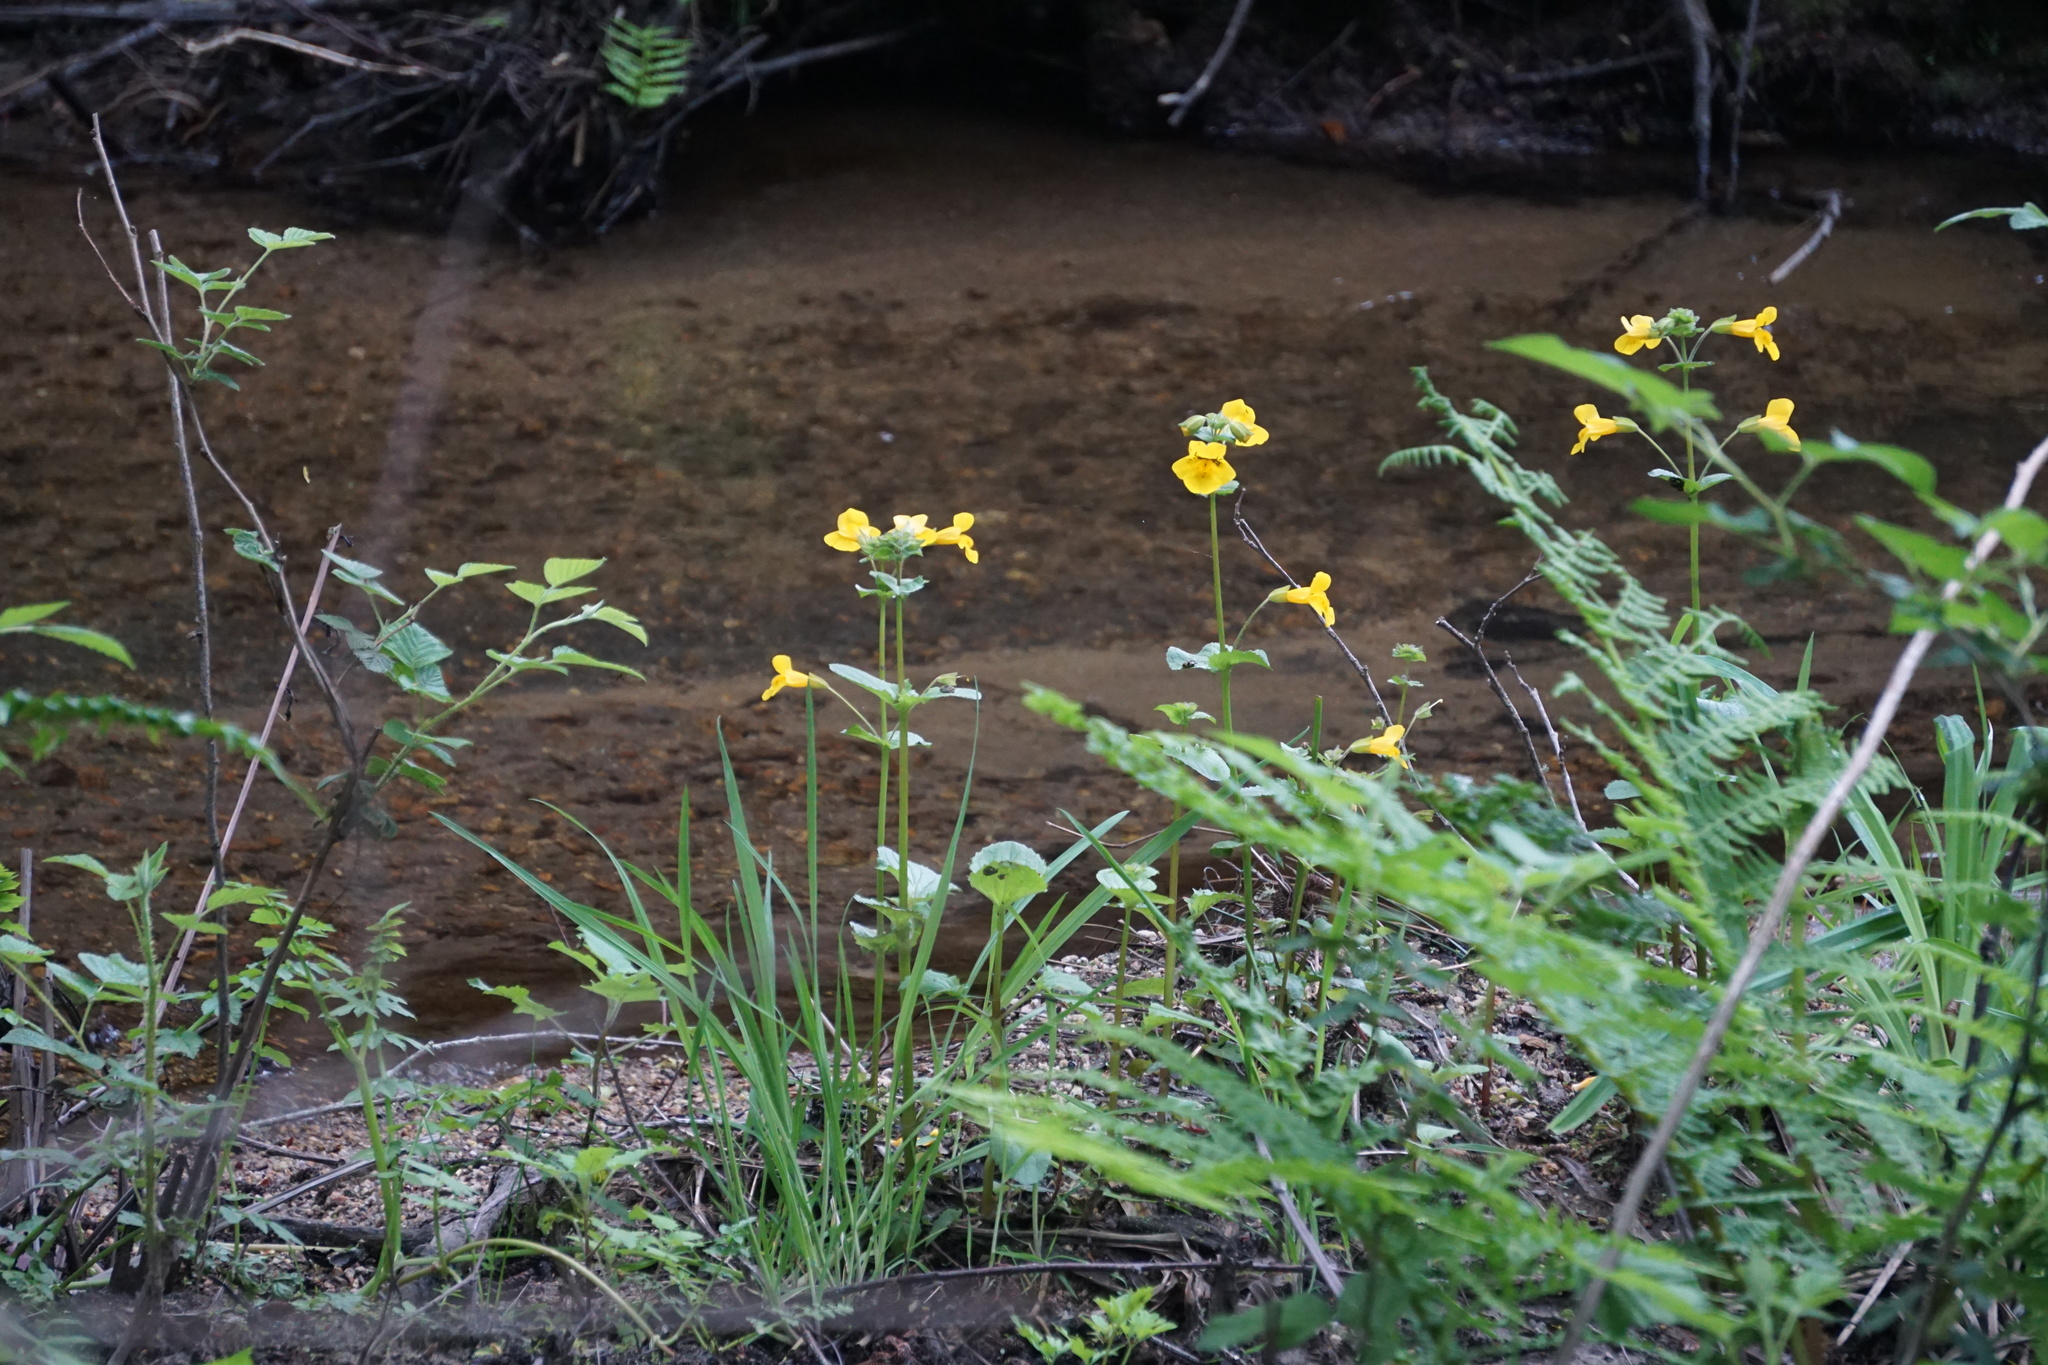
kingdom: Plantae
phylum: Tracheophyta
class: Magnoliopsida
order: Lamiales
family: Phrymaceae
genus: Erythranthe
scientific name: Erythranthe guttata
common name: Monkeyflower
